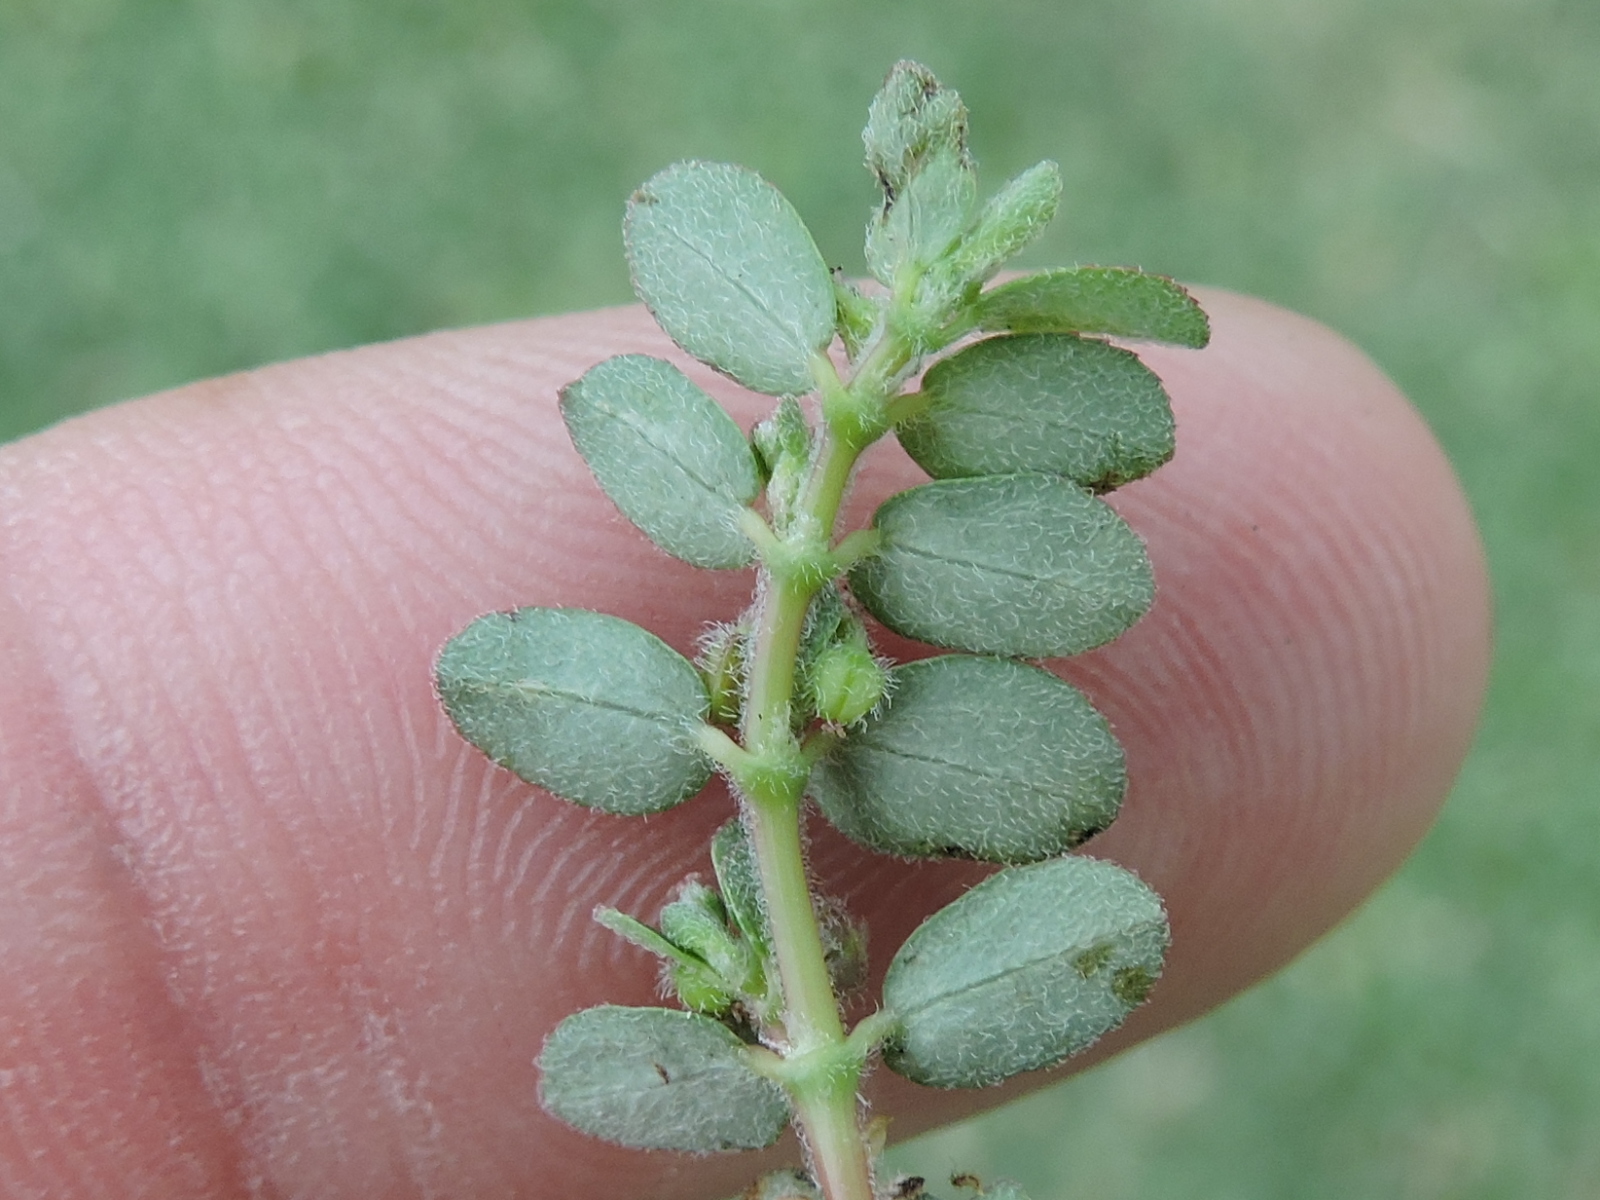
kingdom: Plantae
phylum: Tracheophyta
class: Magnoliopsida
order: Malpighiales
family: Euphorbiaceae
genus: Euphorbia
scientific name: Euphorbia prostrata
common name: Prostrate sandmat
